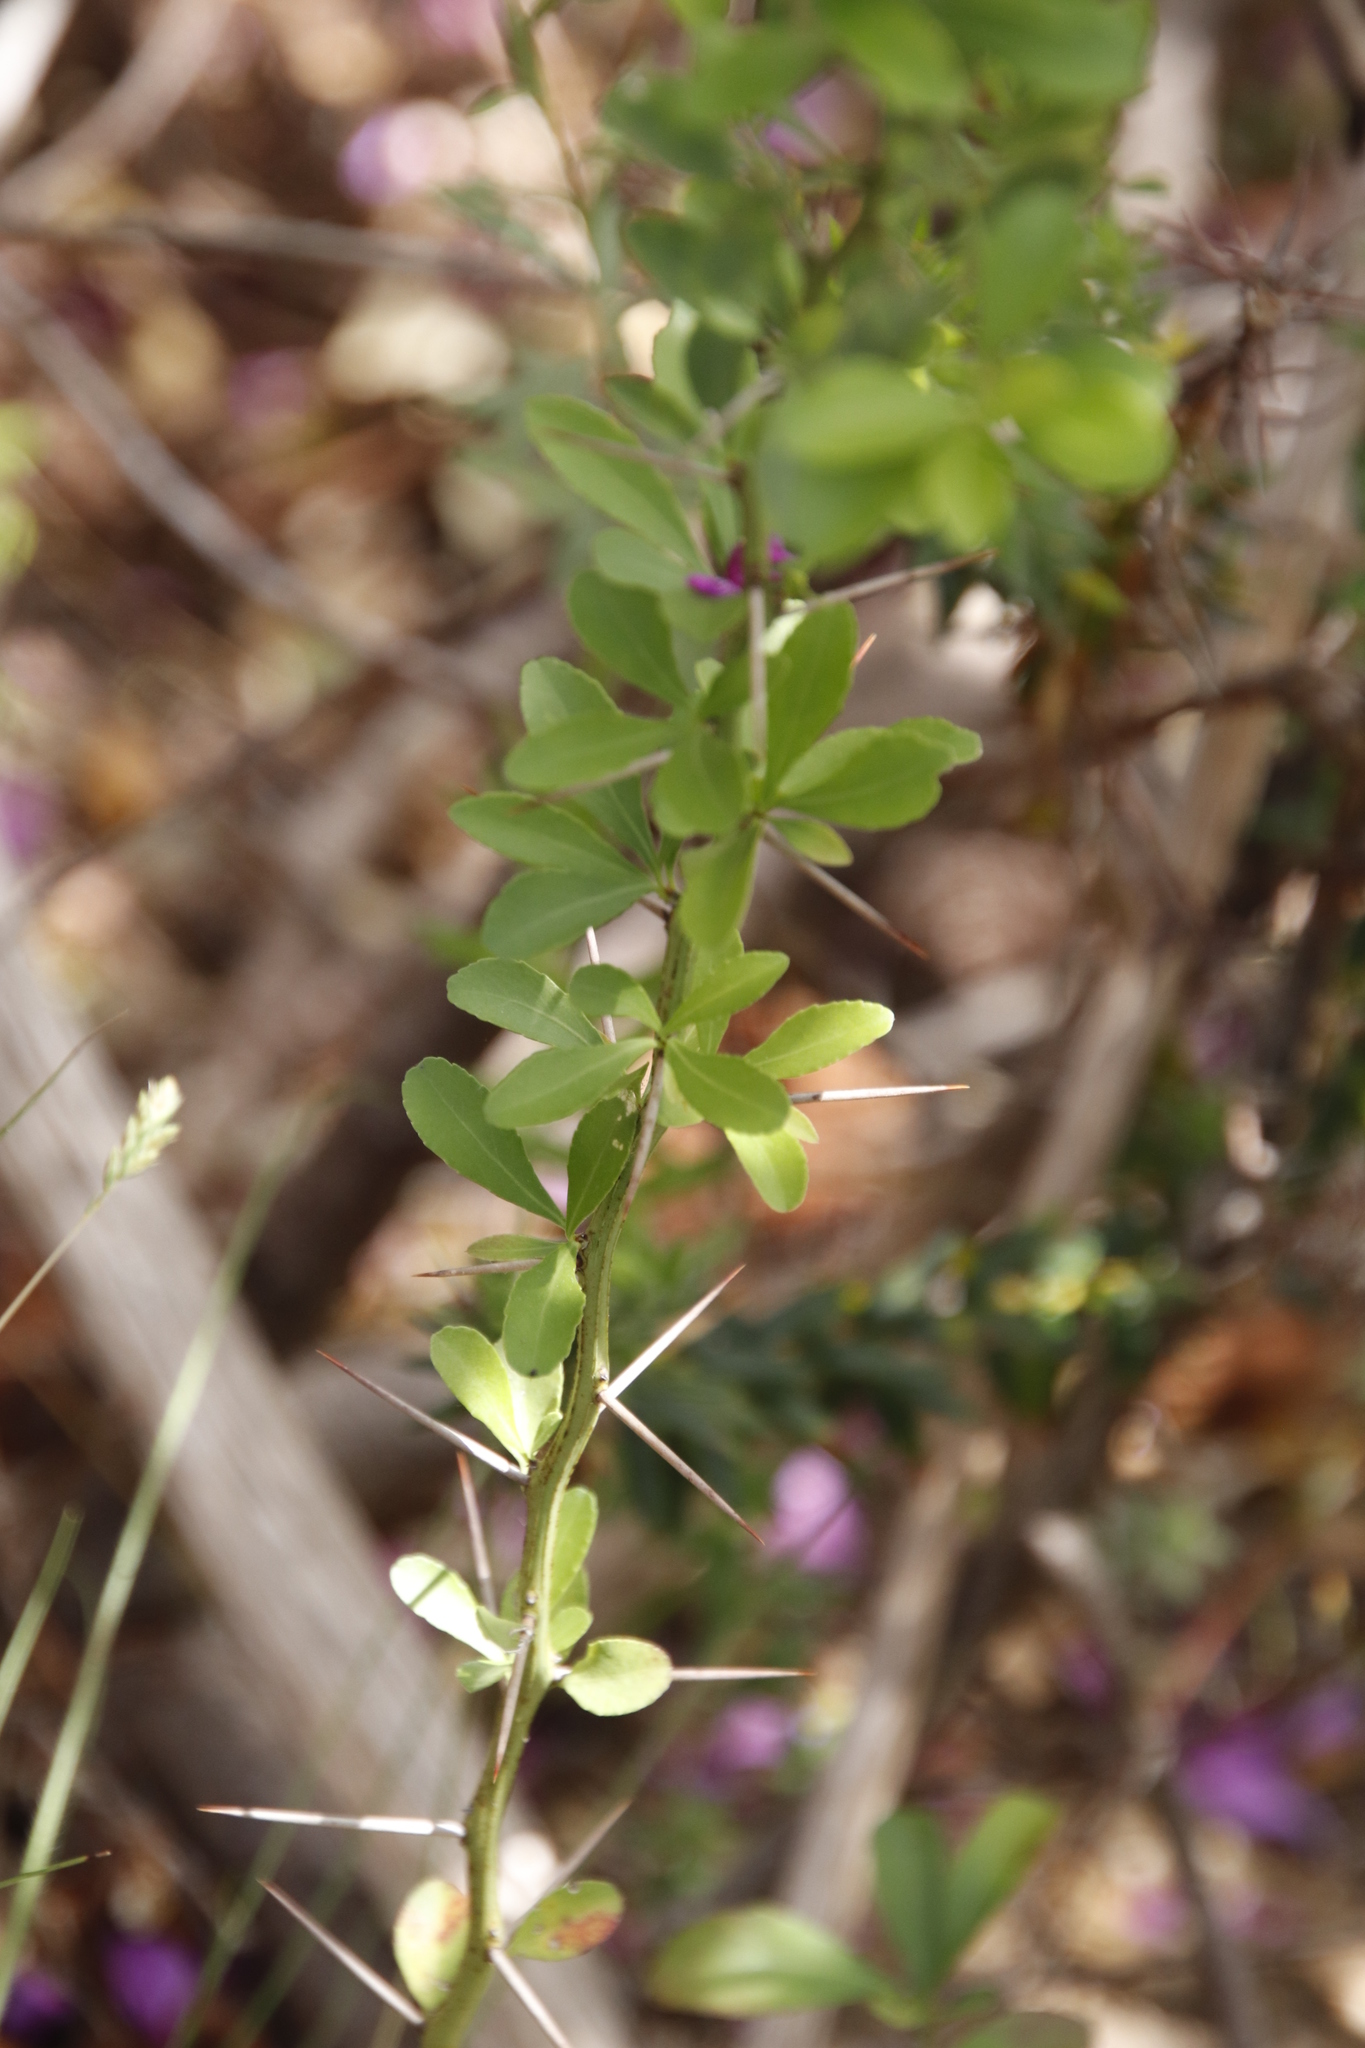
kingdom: Plantae
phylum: Tracheophyta
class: Magnoliopsida
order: Celastrales
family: Celastraceae
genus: Gymnosporia
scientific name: Gymnosporia buxifolia
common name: Common spike-thorn
